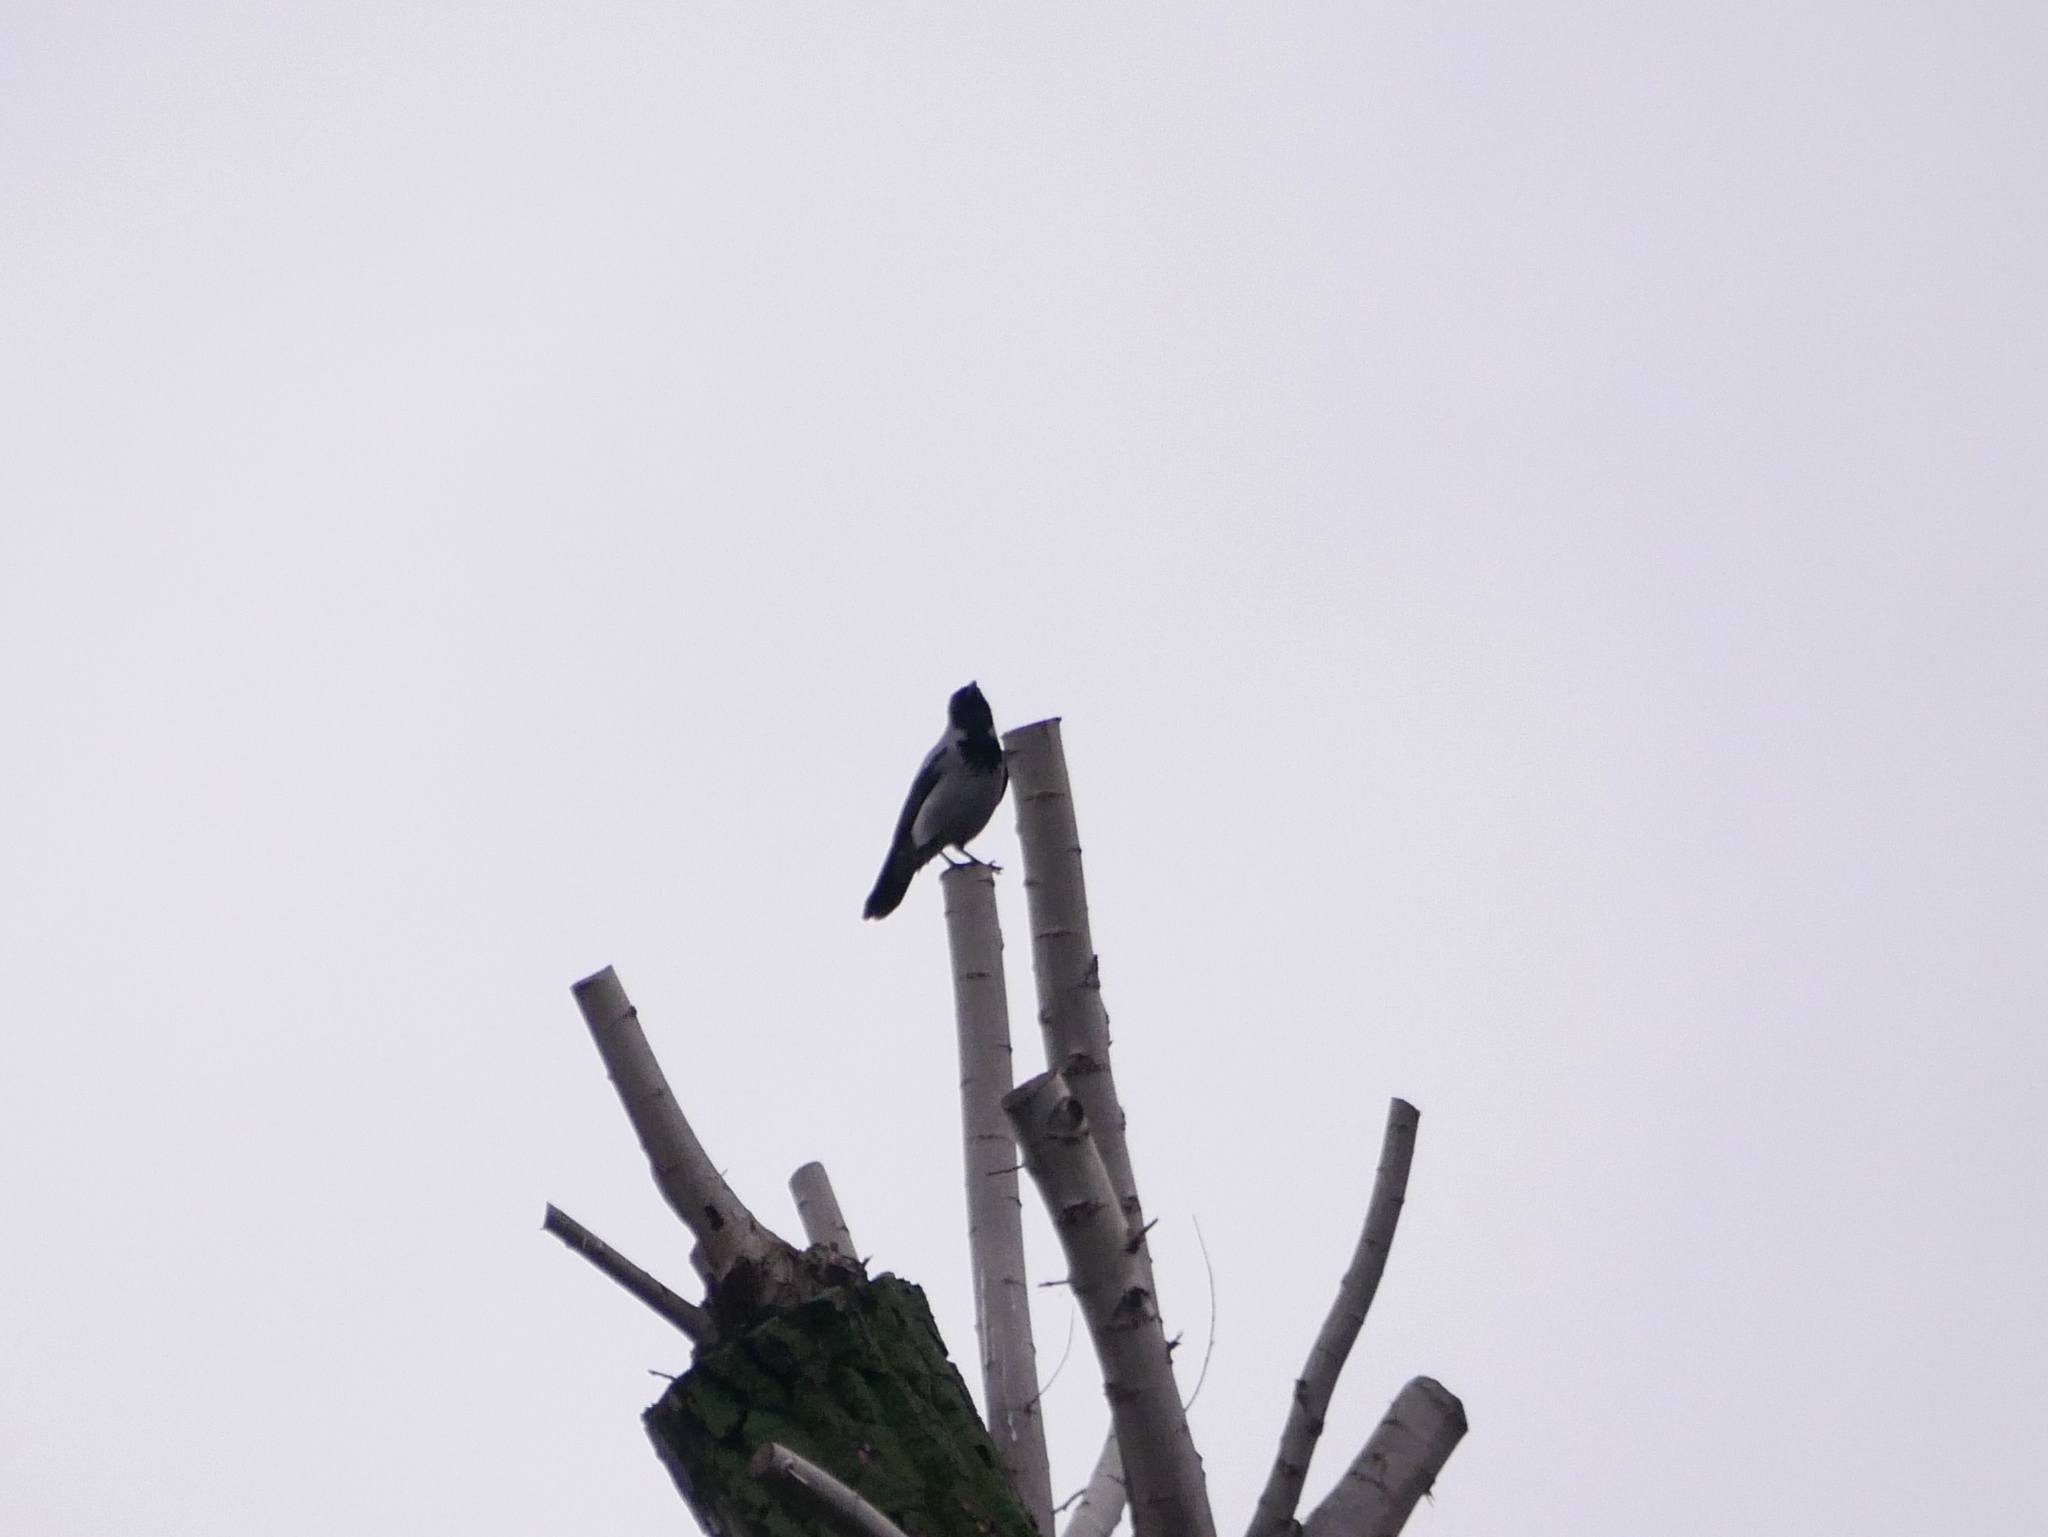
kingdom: Animalia
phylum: Chordata
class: Aves
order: Passeriformes
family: Corvidae
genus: Corvus
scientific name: Corvus cornix
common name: Hooded crow
